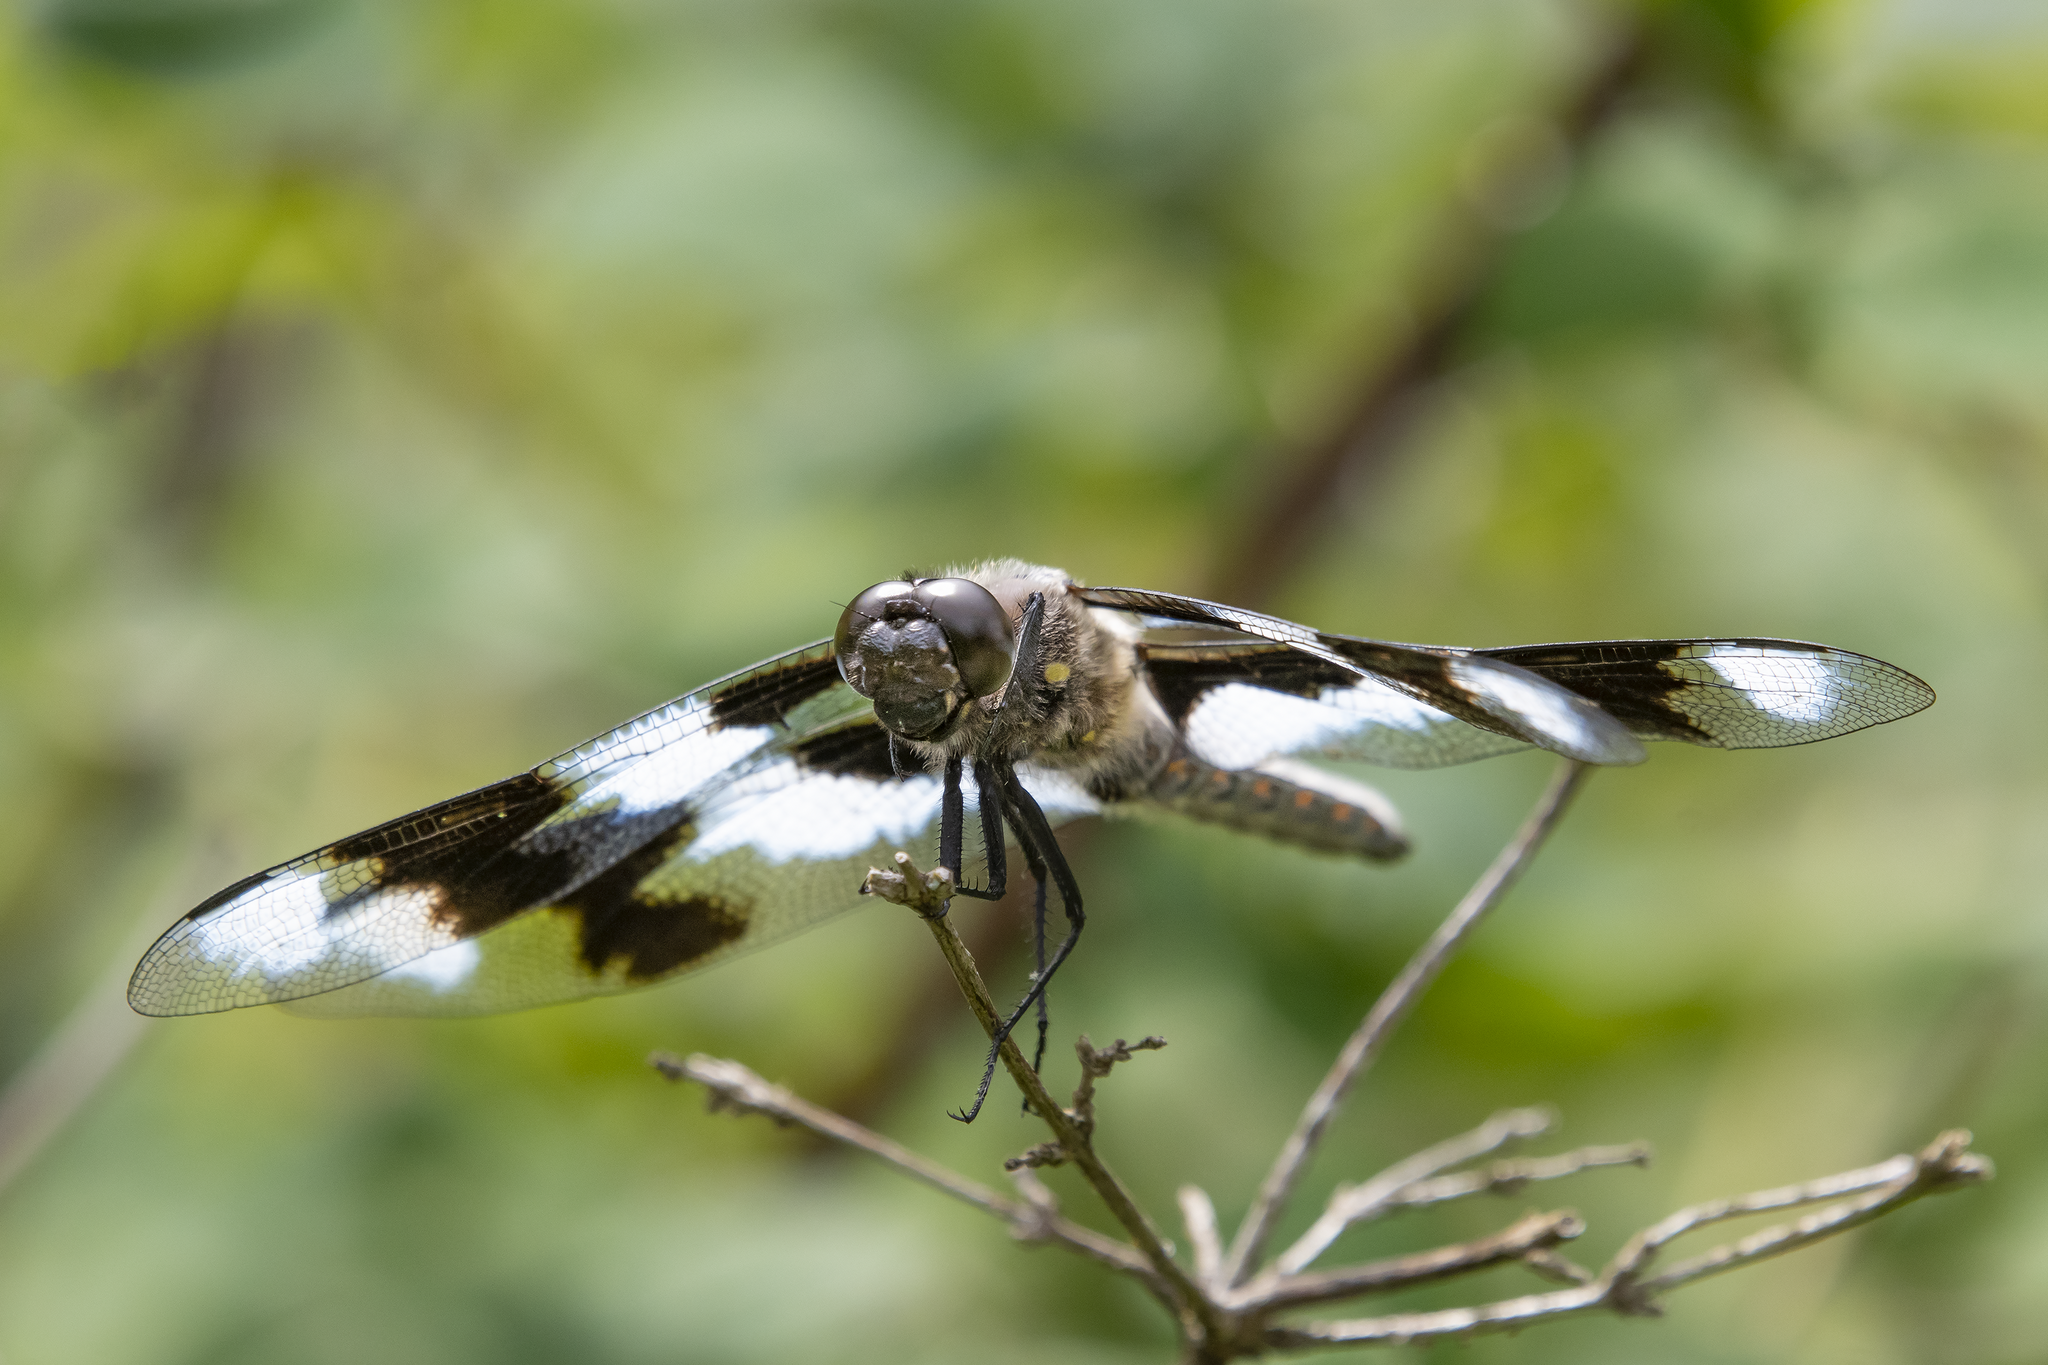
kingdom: Animalia
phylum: Arthropoda
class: Insecta
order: Odonata
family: Libellulidae
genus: Libellula
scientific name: Libellula forensis
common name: Eight-spotted skimmer
